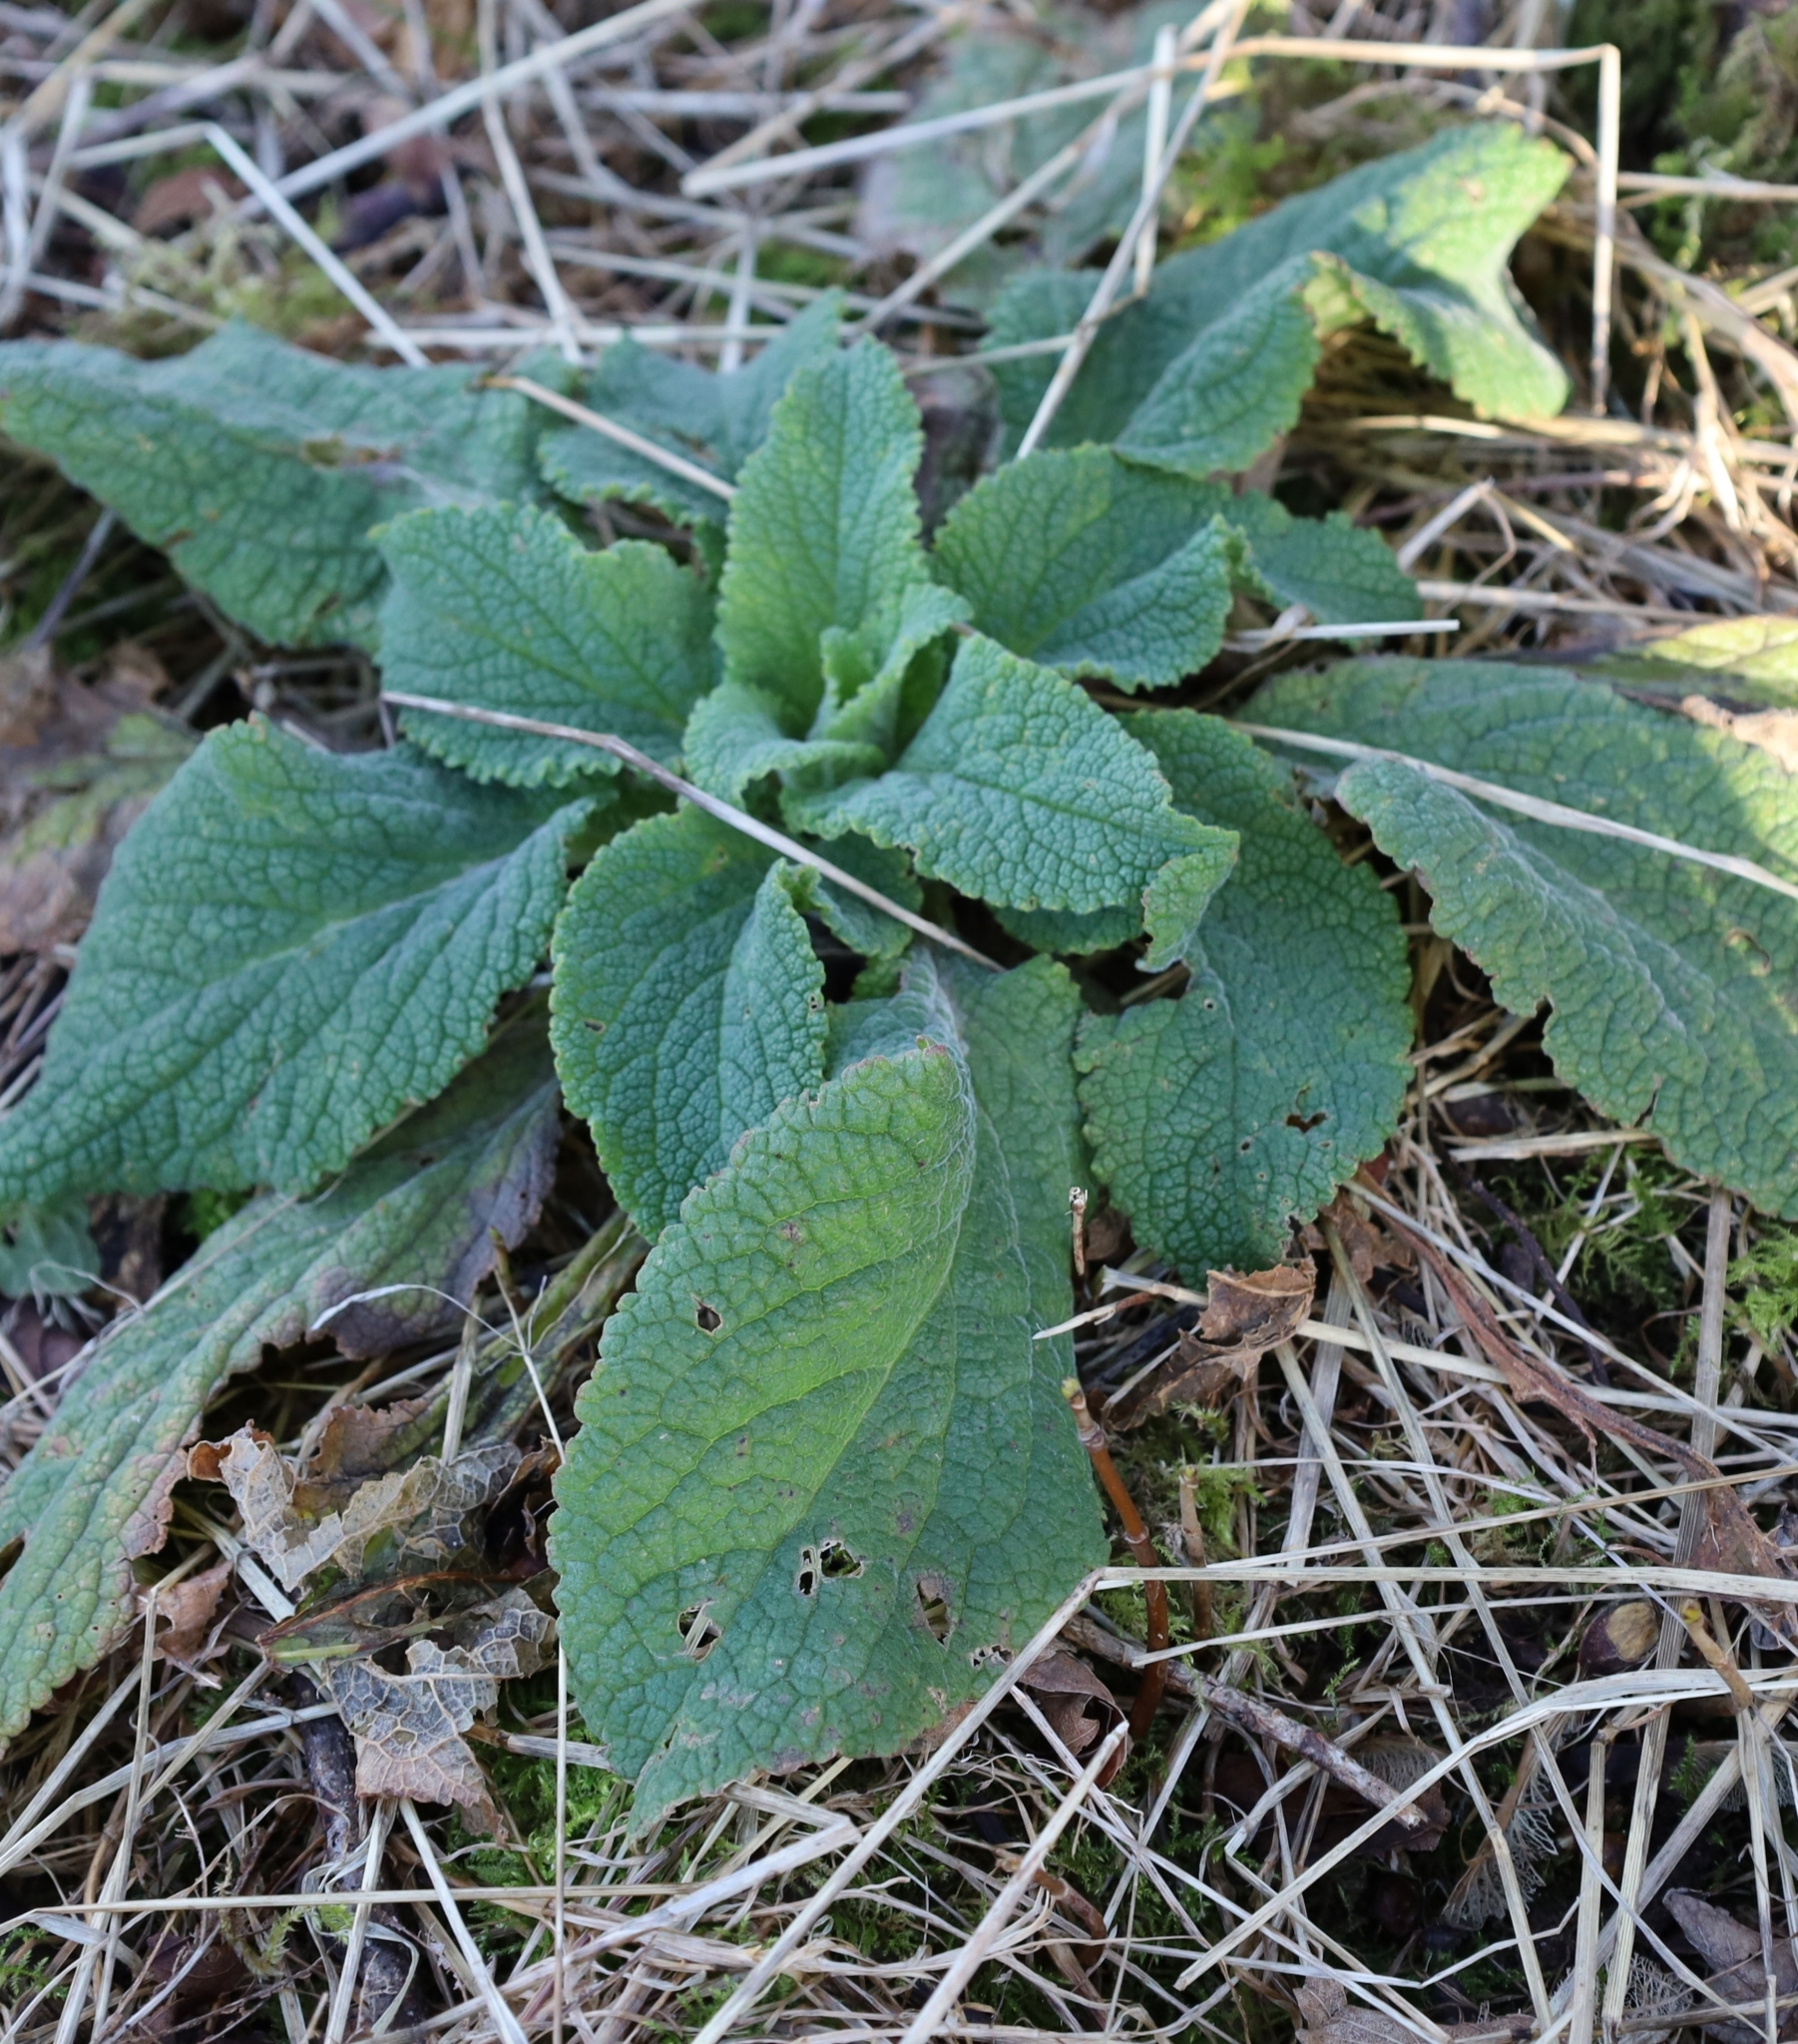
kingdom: Plantae
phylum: Tracheophyta
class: Magnoliopsida
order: Lamiales
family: Plantaginaceae
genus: Digitalis
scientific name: Digitalis purpurea
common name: Foxglove
